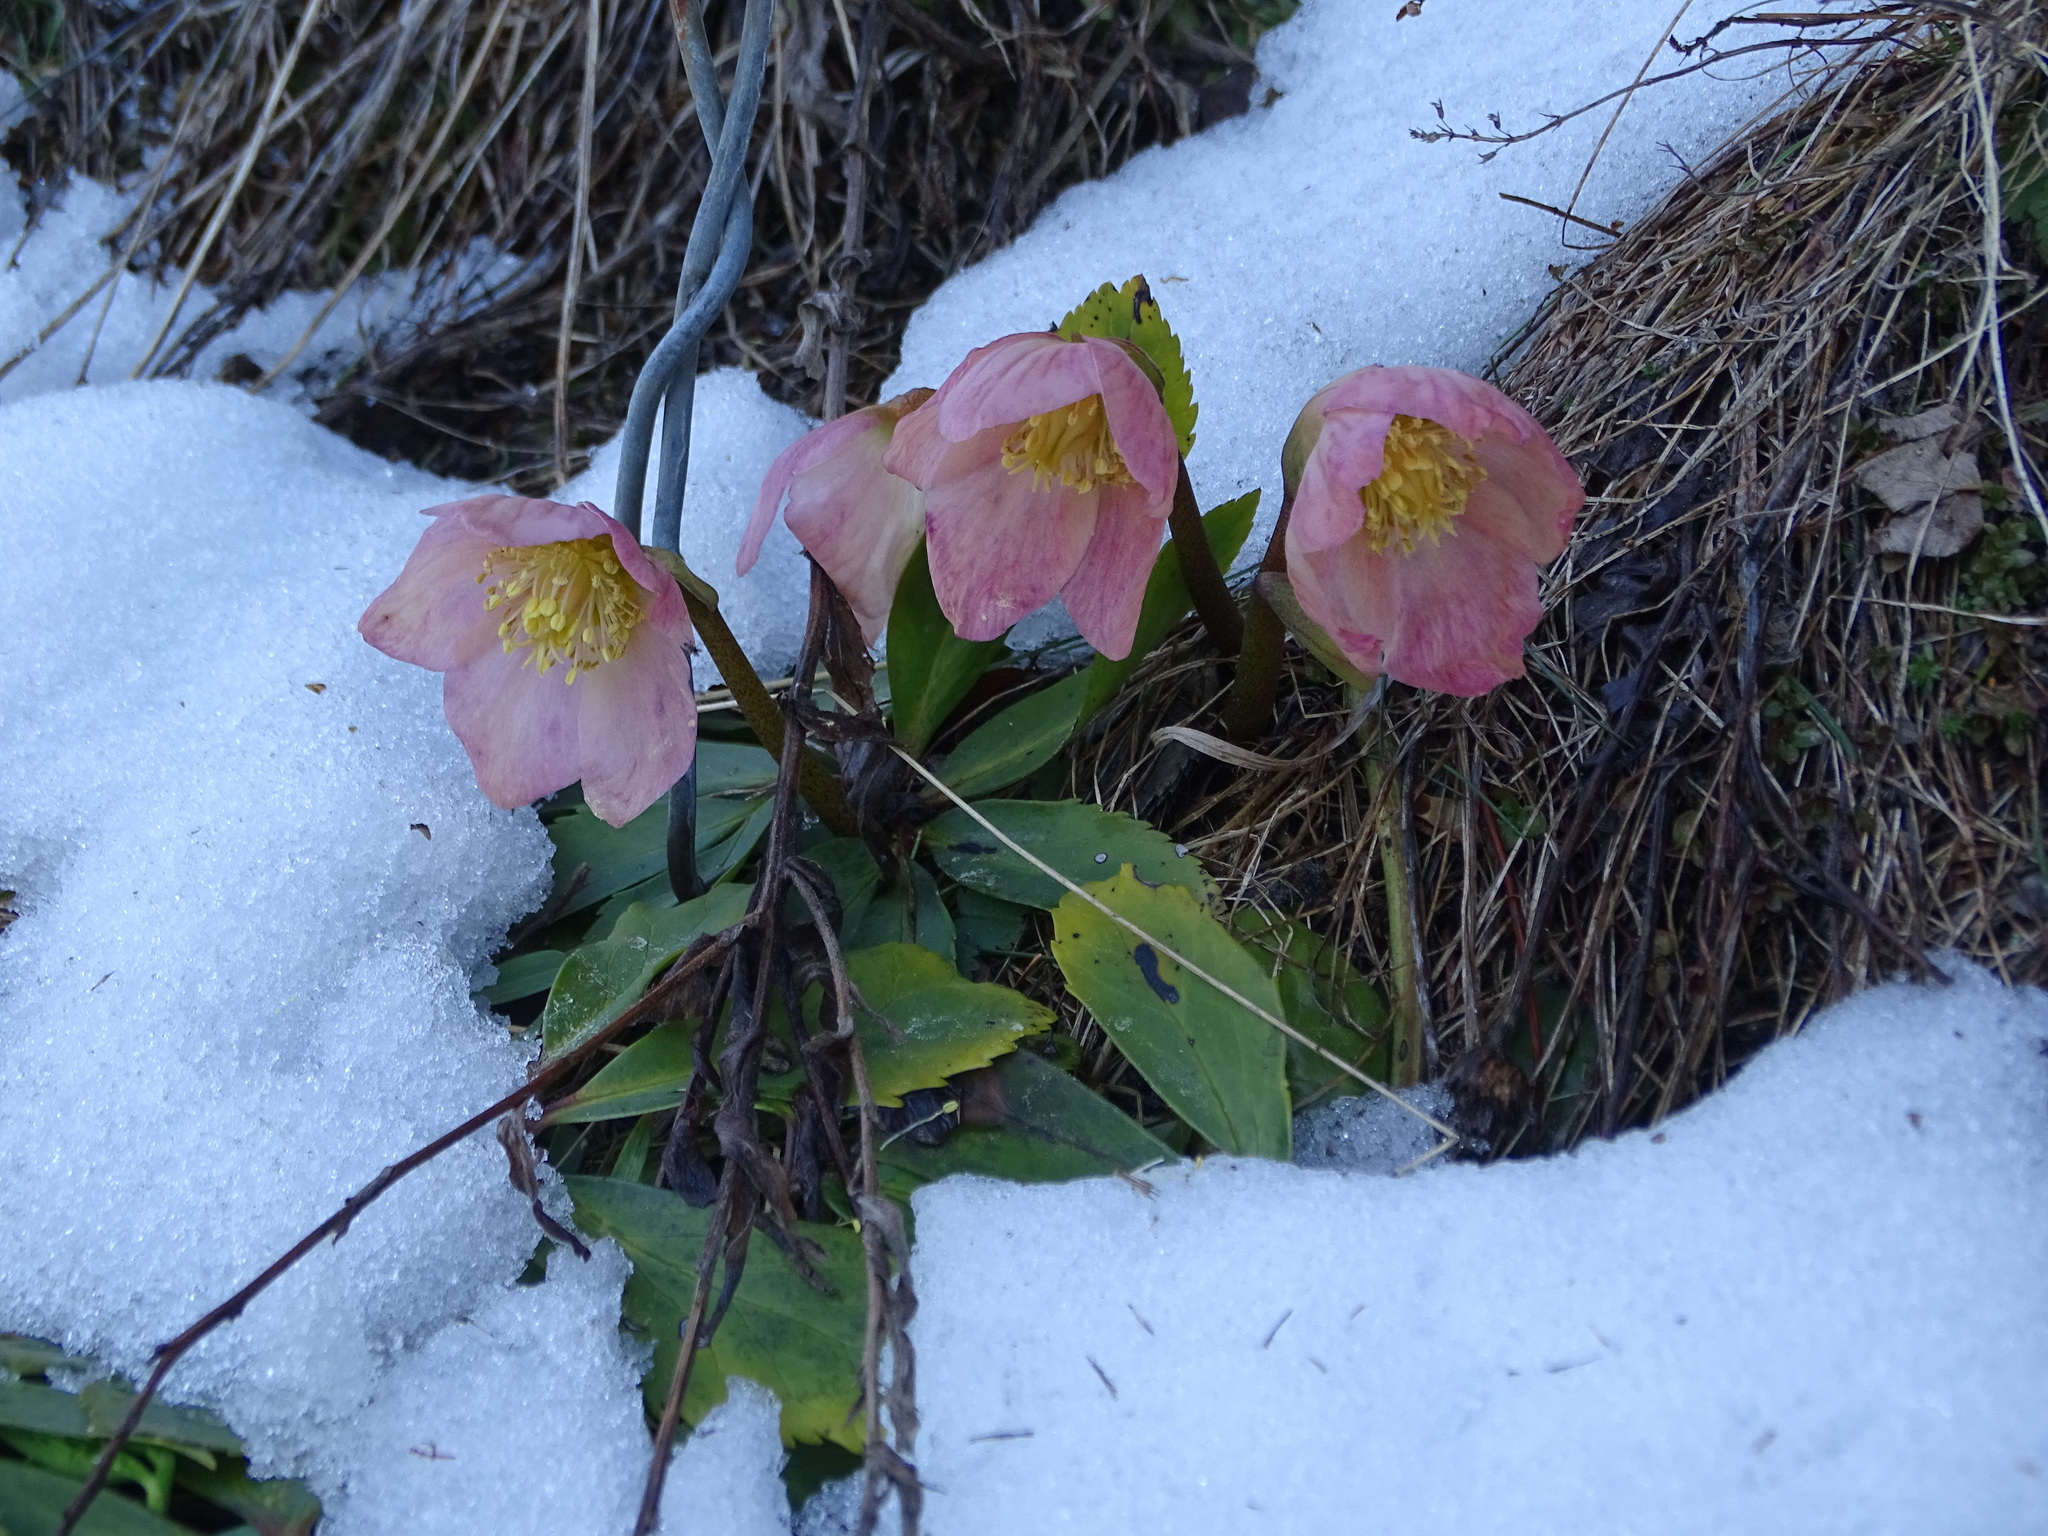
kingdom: Plantae
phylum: Tracheophyta
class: Magnoliopsida
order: Ranunculales
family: Ranunculaceae
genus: Helleborus
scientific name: Helleborus niger
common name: Black hellebore
